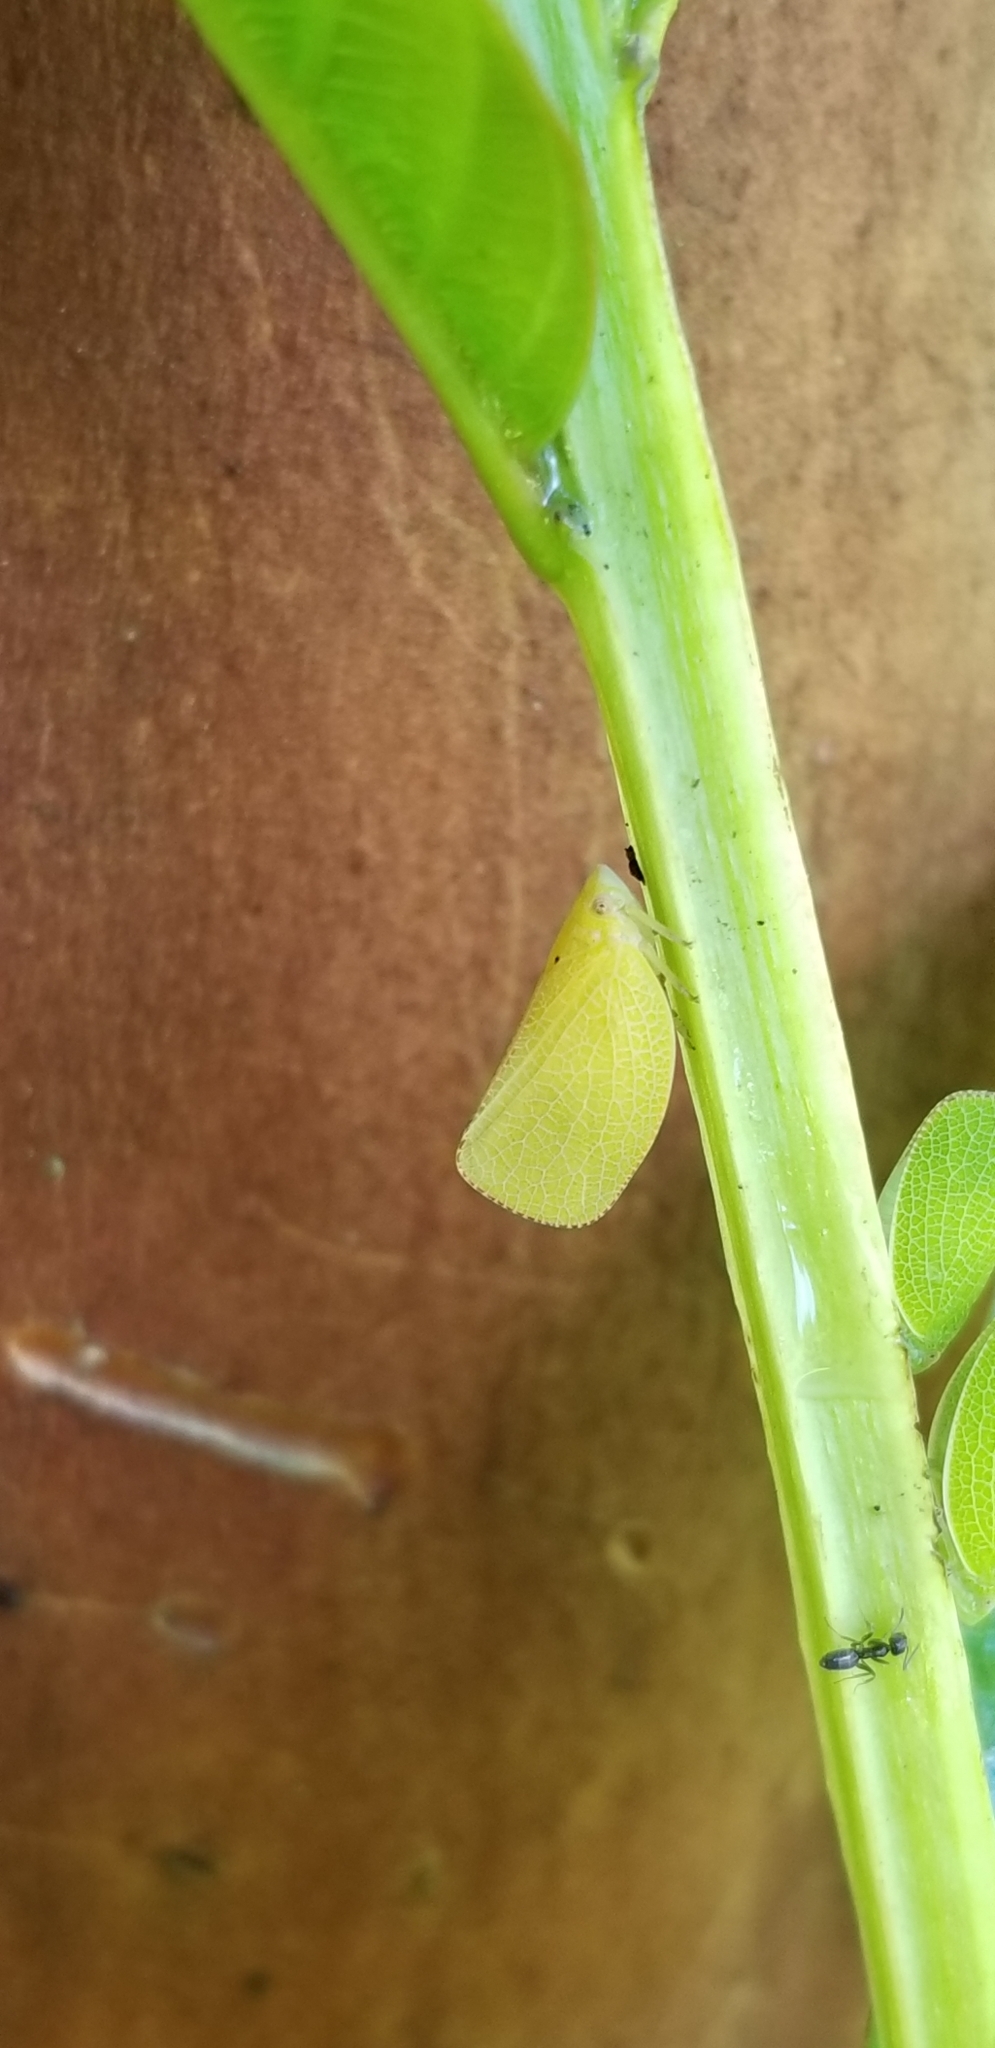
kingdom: Animalia
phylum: Arthropoda
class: Insecta
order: Hemiptera
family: Acanaloniidae
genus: Acanalonia
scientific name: Acanalonia conica
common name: Green cone-headed planthopper
